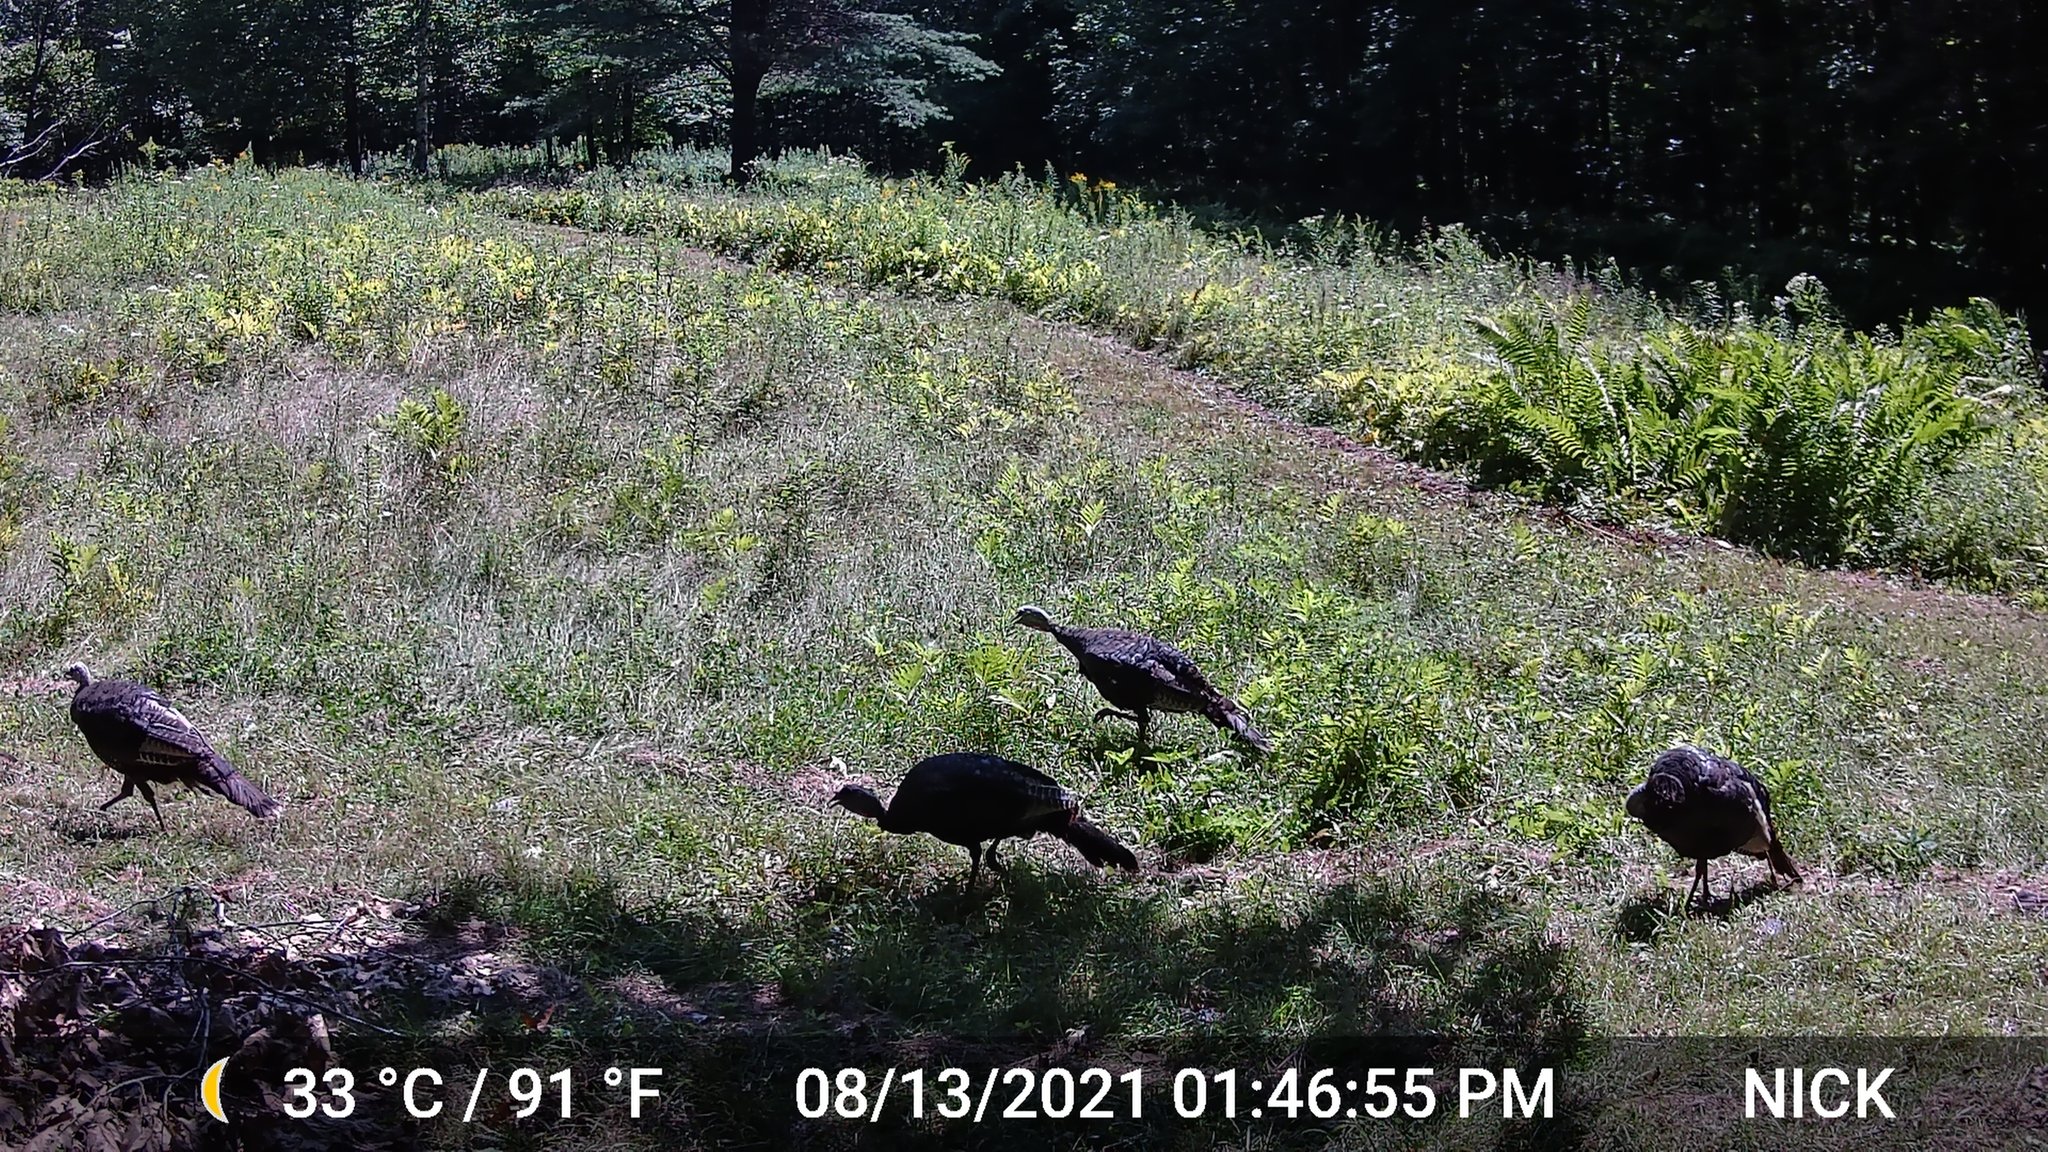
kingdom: Animalia
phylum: Chordata
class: Aves
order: Galliformes
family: Phasianidae
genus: Meleagris
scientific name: Meleagris gallopavo
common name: Wild turkey
